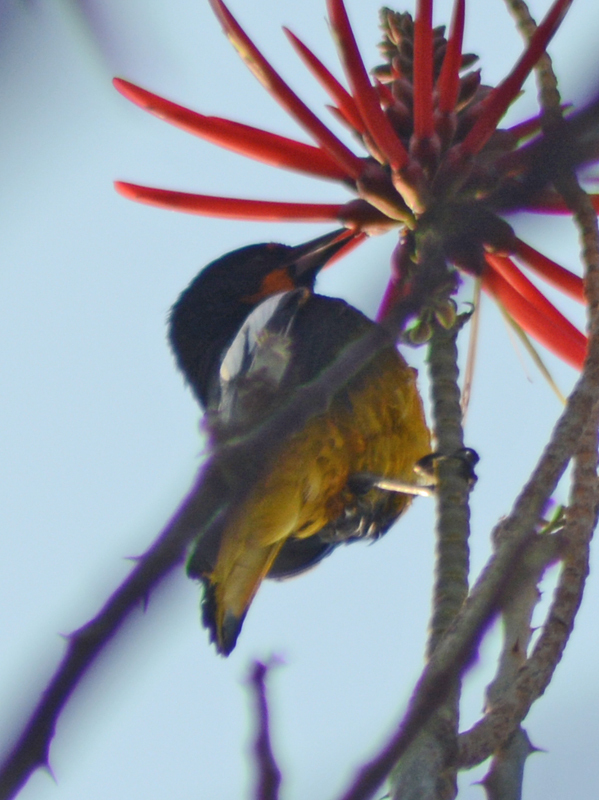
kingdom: Animalia
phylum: Chordata
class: Aves
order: Passeriformes
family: Icteridae
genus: Icterus
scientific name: Icterus abeillei
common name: Black-backed oriole
